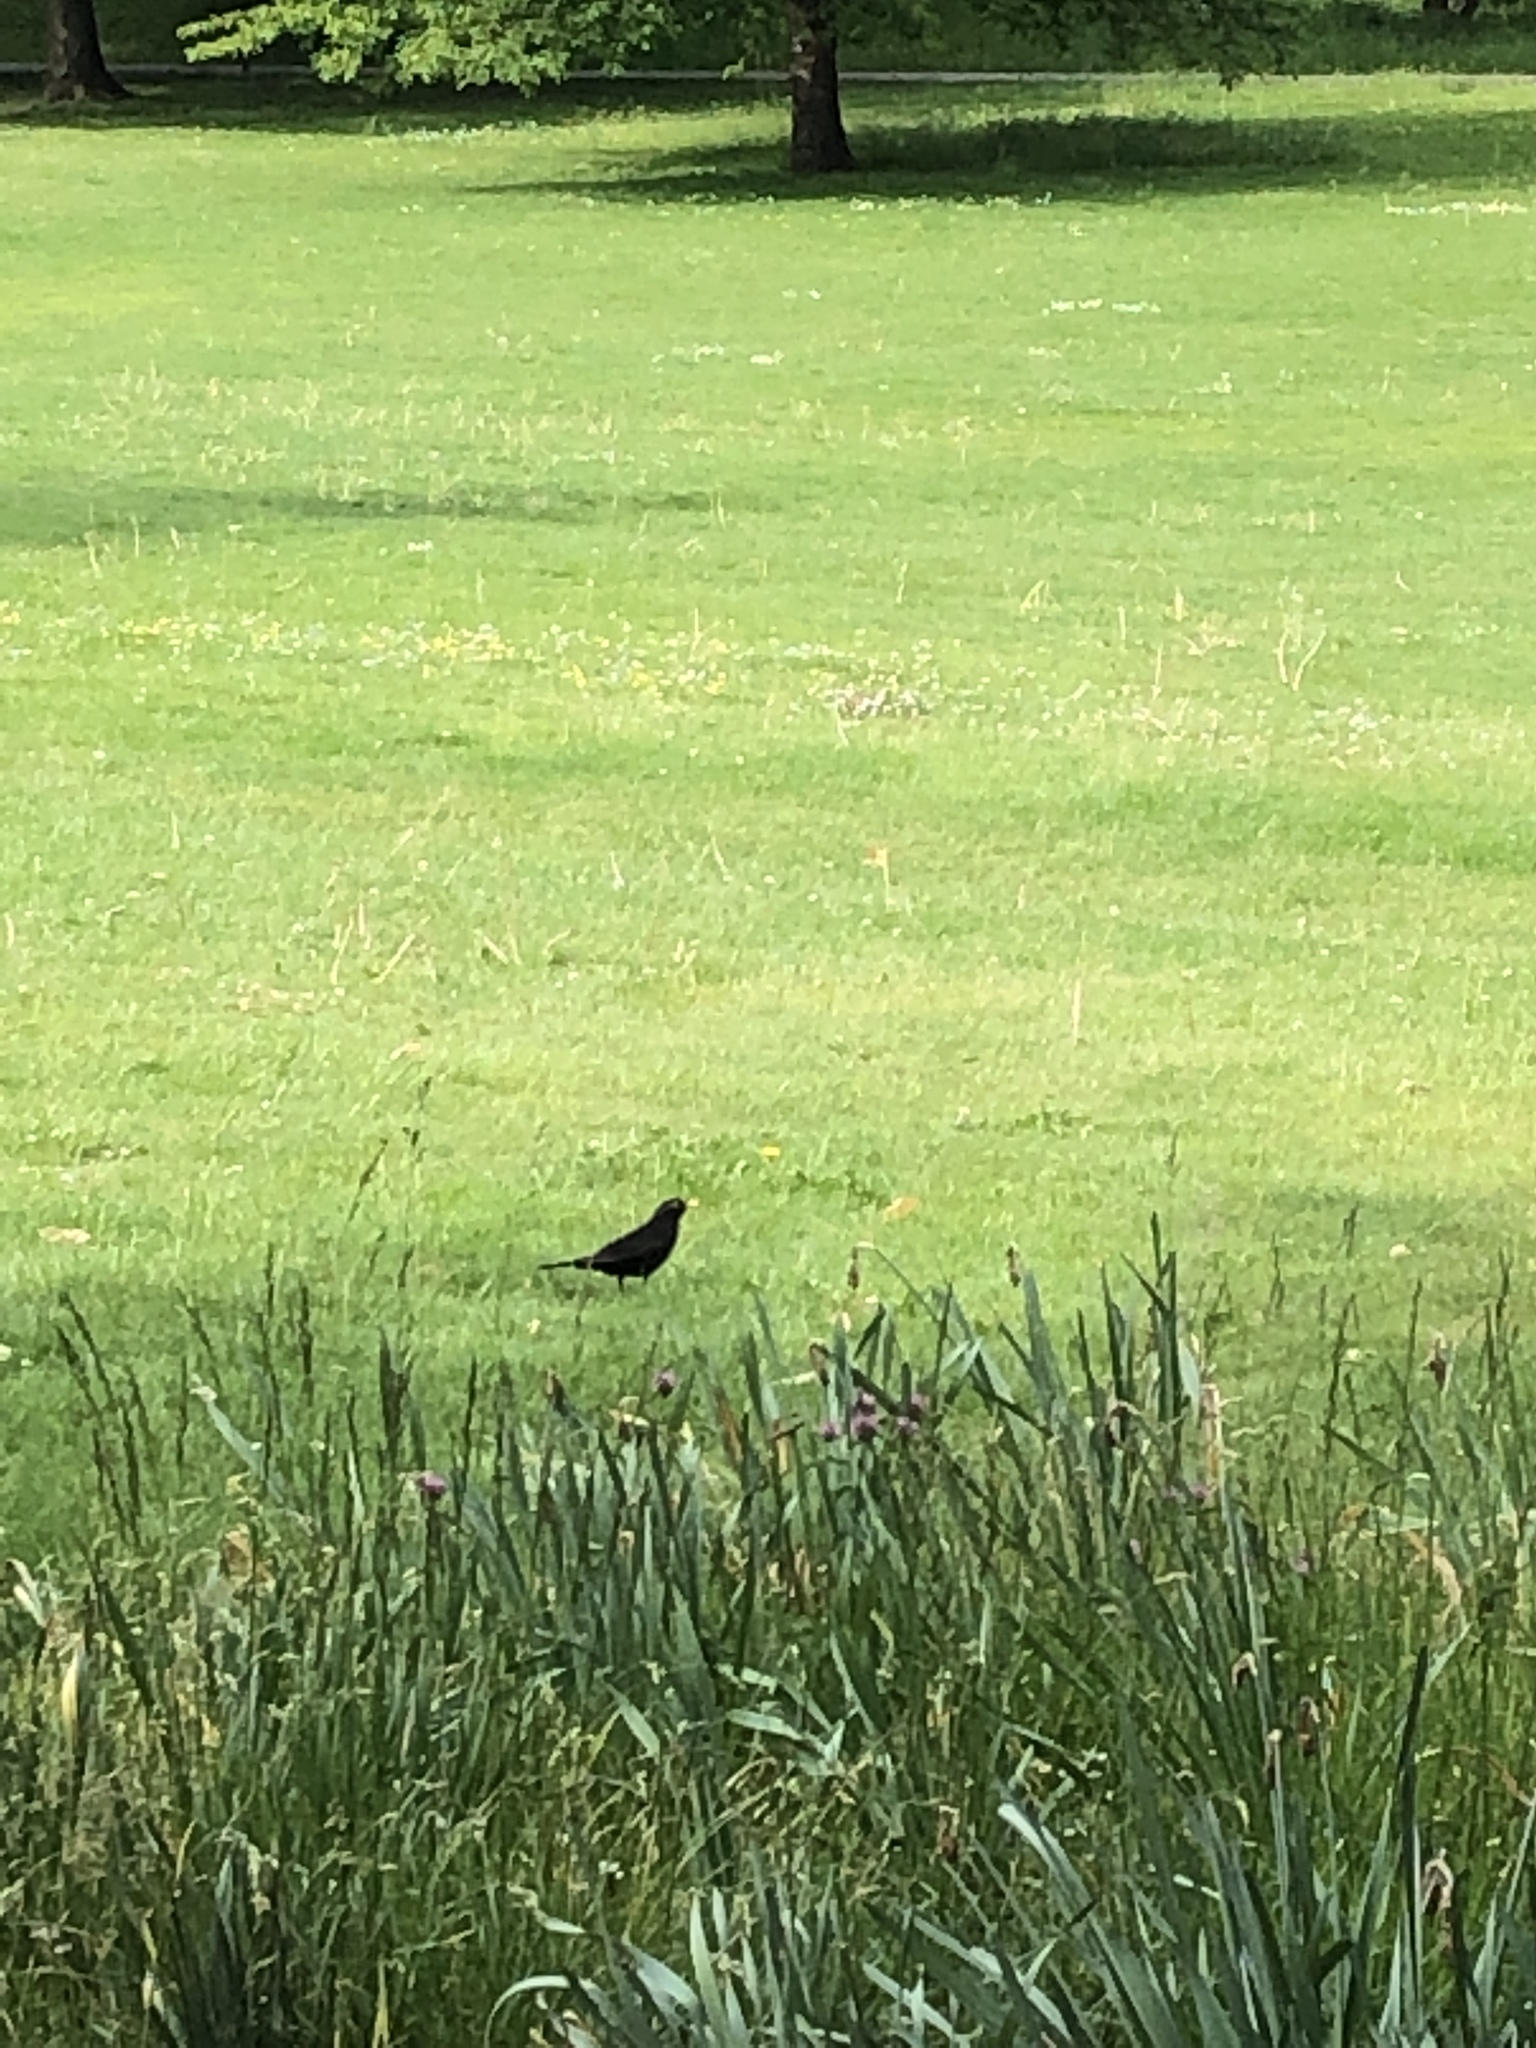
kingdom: Animalia
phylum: Chordata
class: Aves
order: Passeriformes
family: Turdidae
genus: Turdus
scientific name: Turdus merula
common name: Common blackbird
